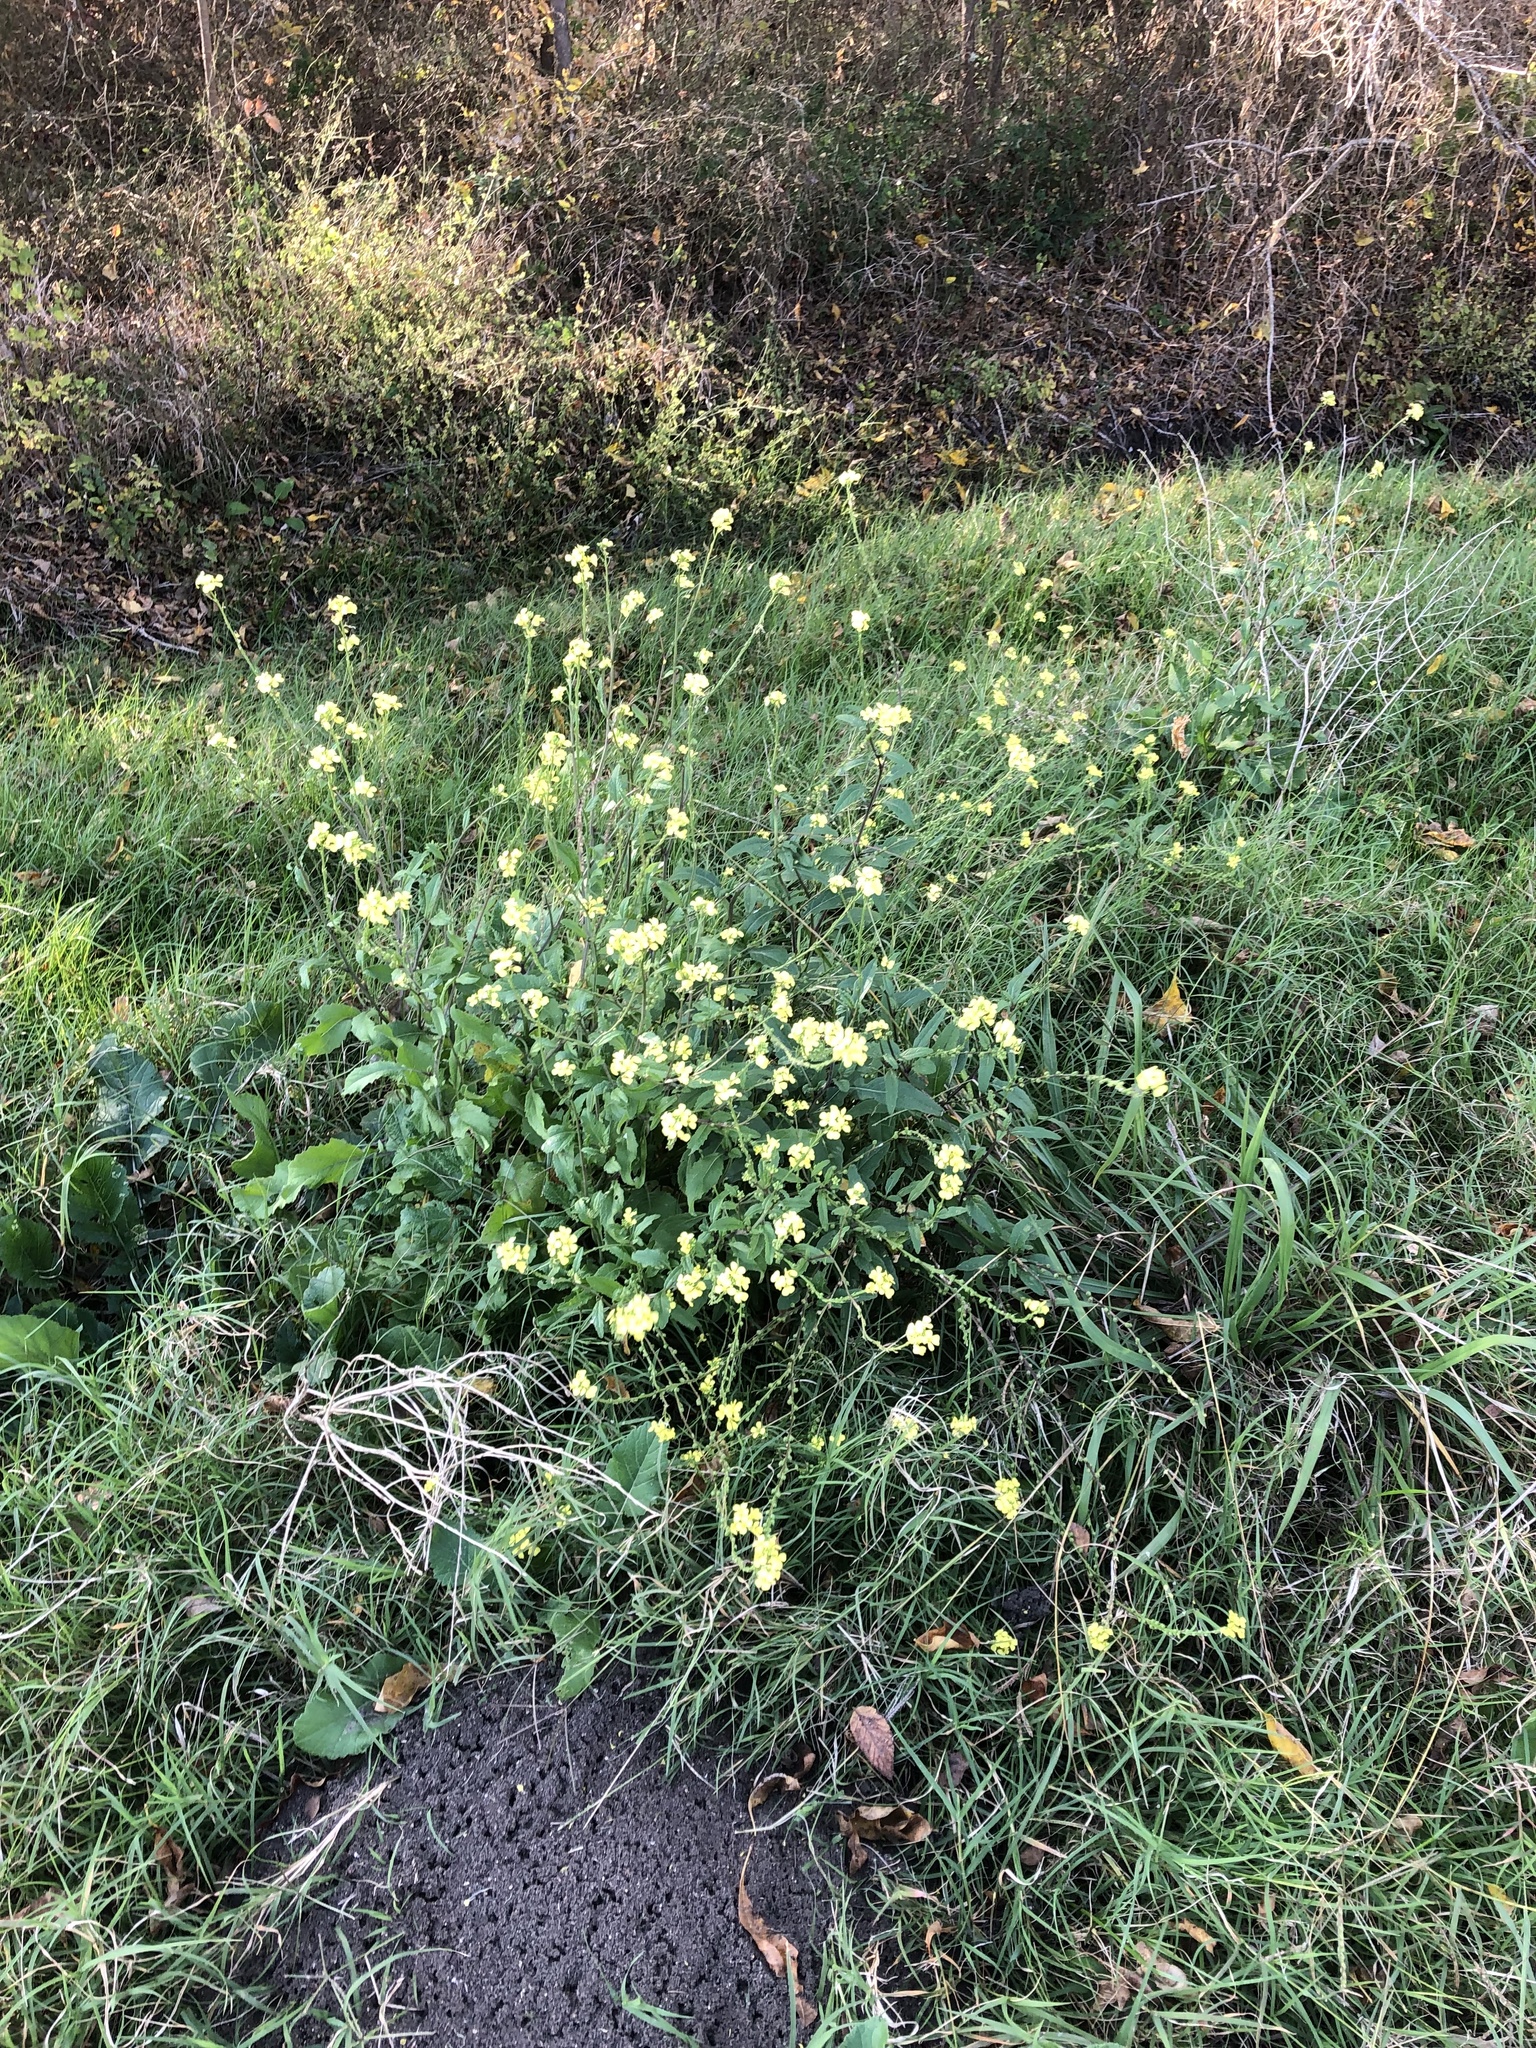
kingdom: Plantae
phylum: Tracheophyta
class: Magnoliopsida
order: Brassicales
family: Brassicaceae
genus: Rapistrum
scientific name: Rapistrum rugosum
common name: Annual bastardcabbage
